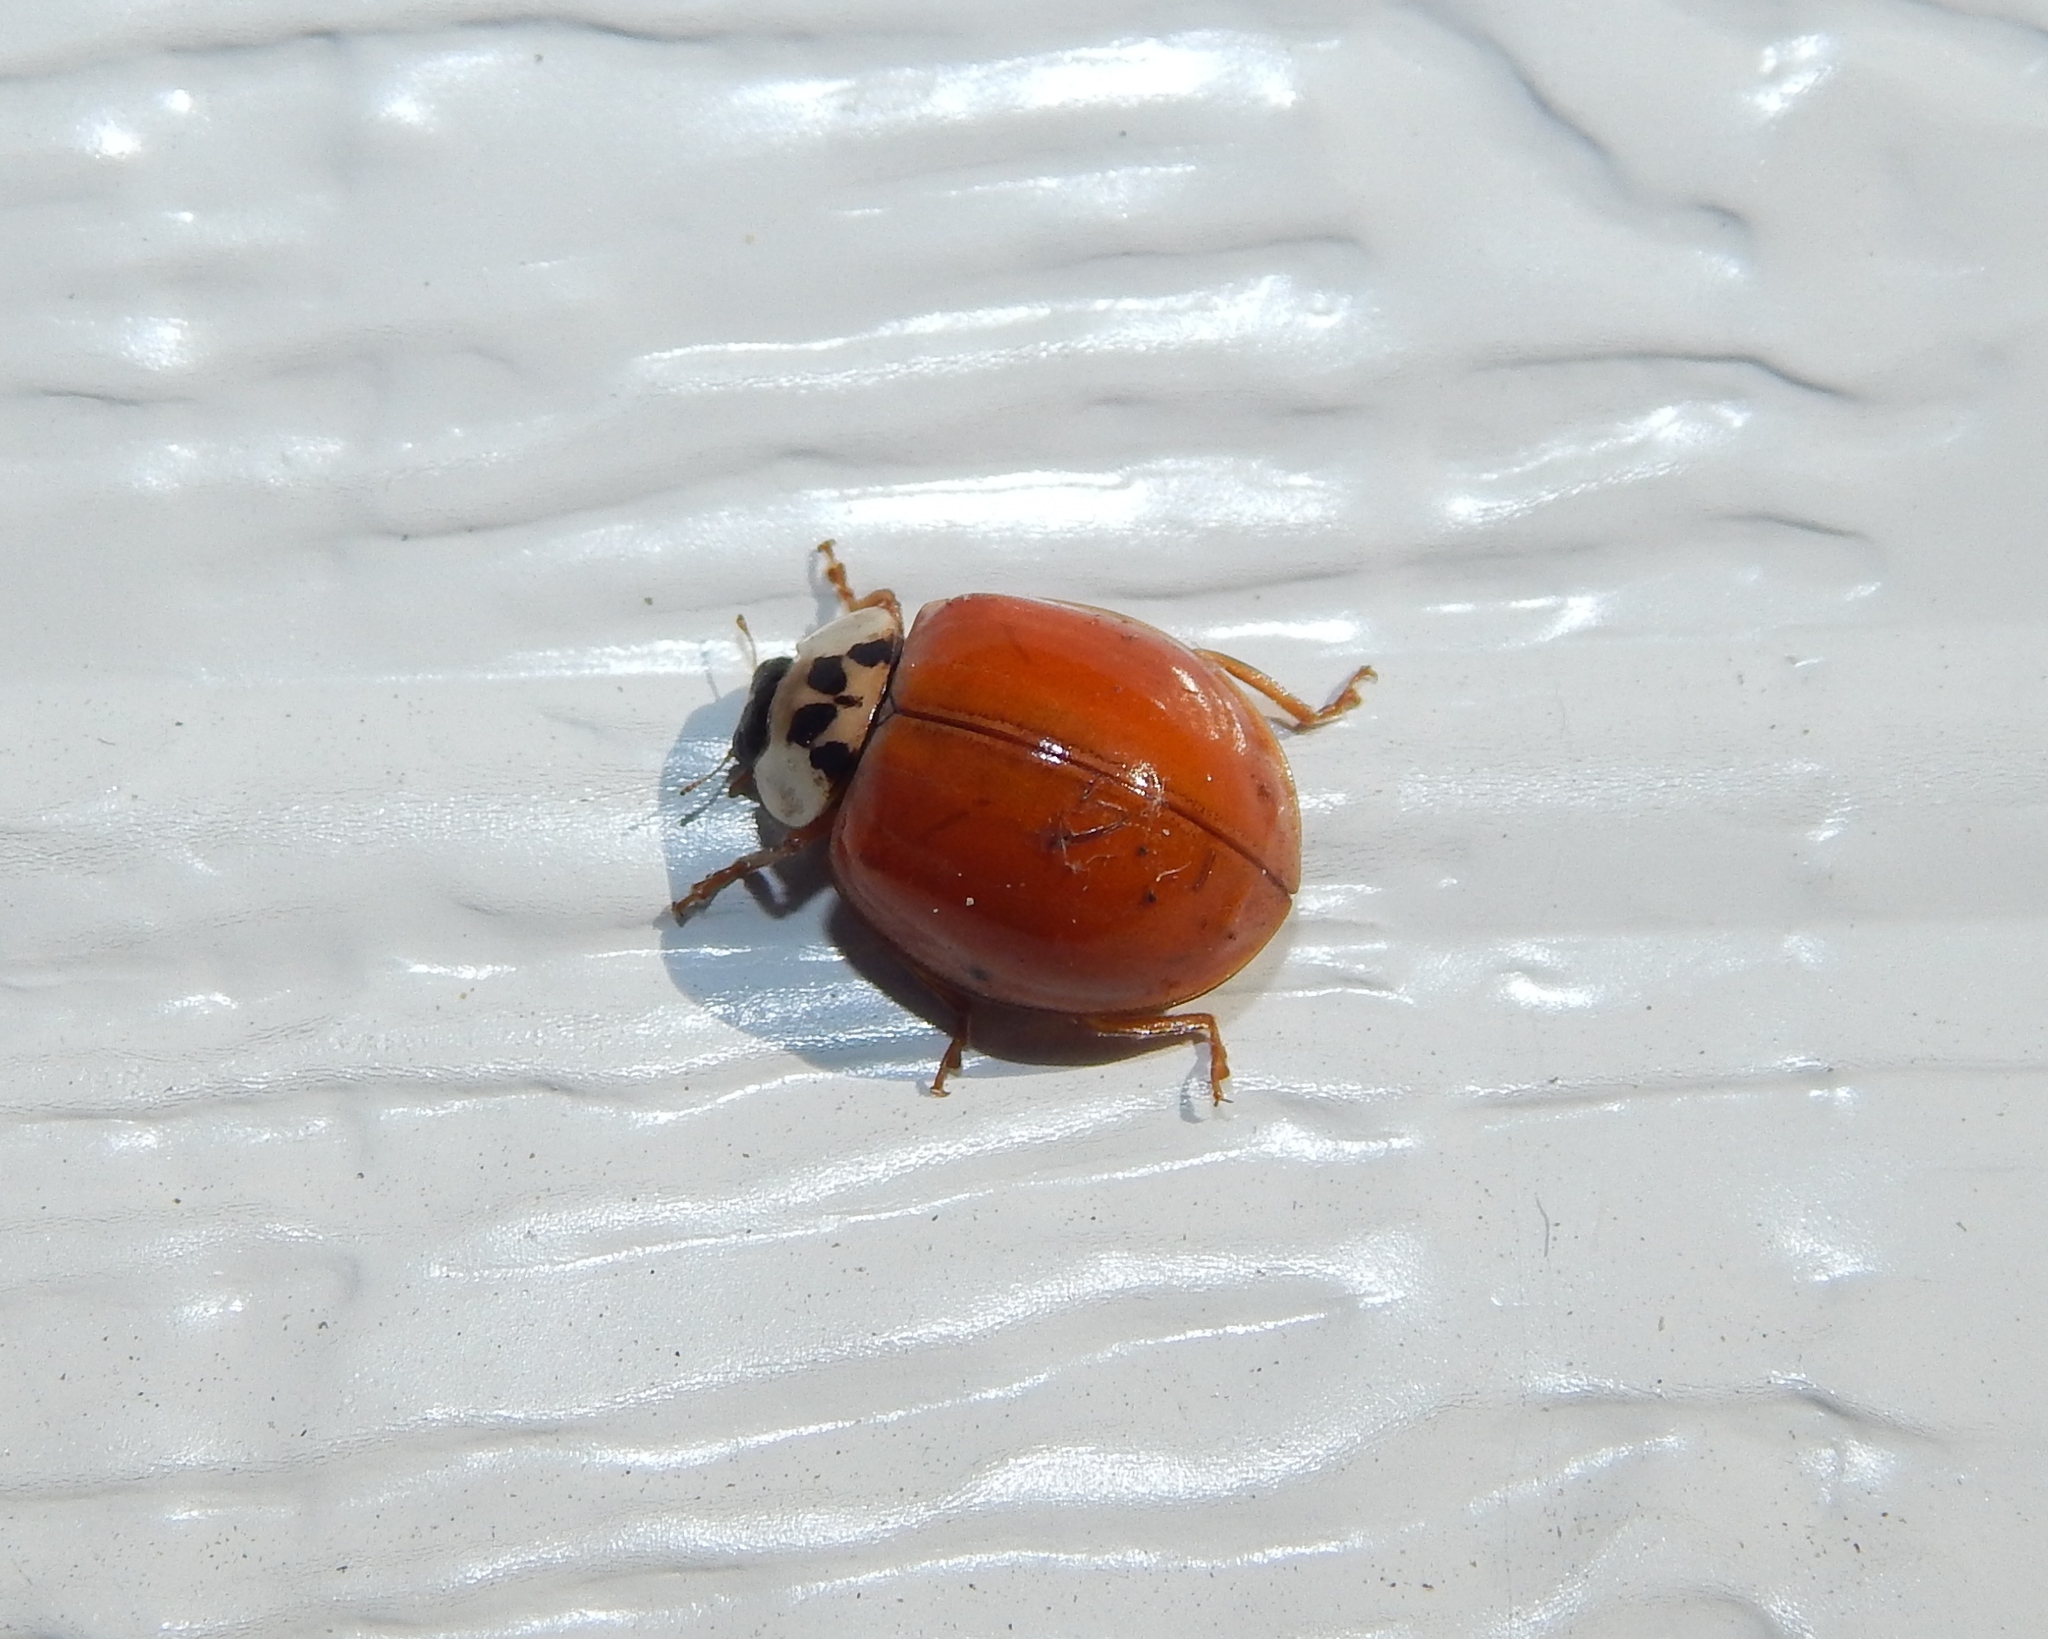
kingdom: Animalia
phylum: Arthropoda
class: Insecta
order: Coleoptera
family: Coccinellidae
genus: Harmonia
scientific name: Harmonia axyridis
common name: Harlequin ladybird
